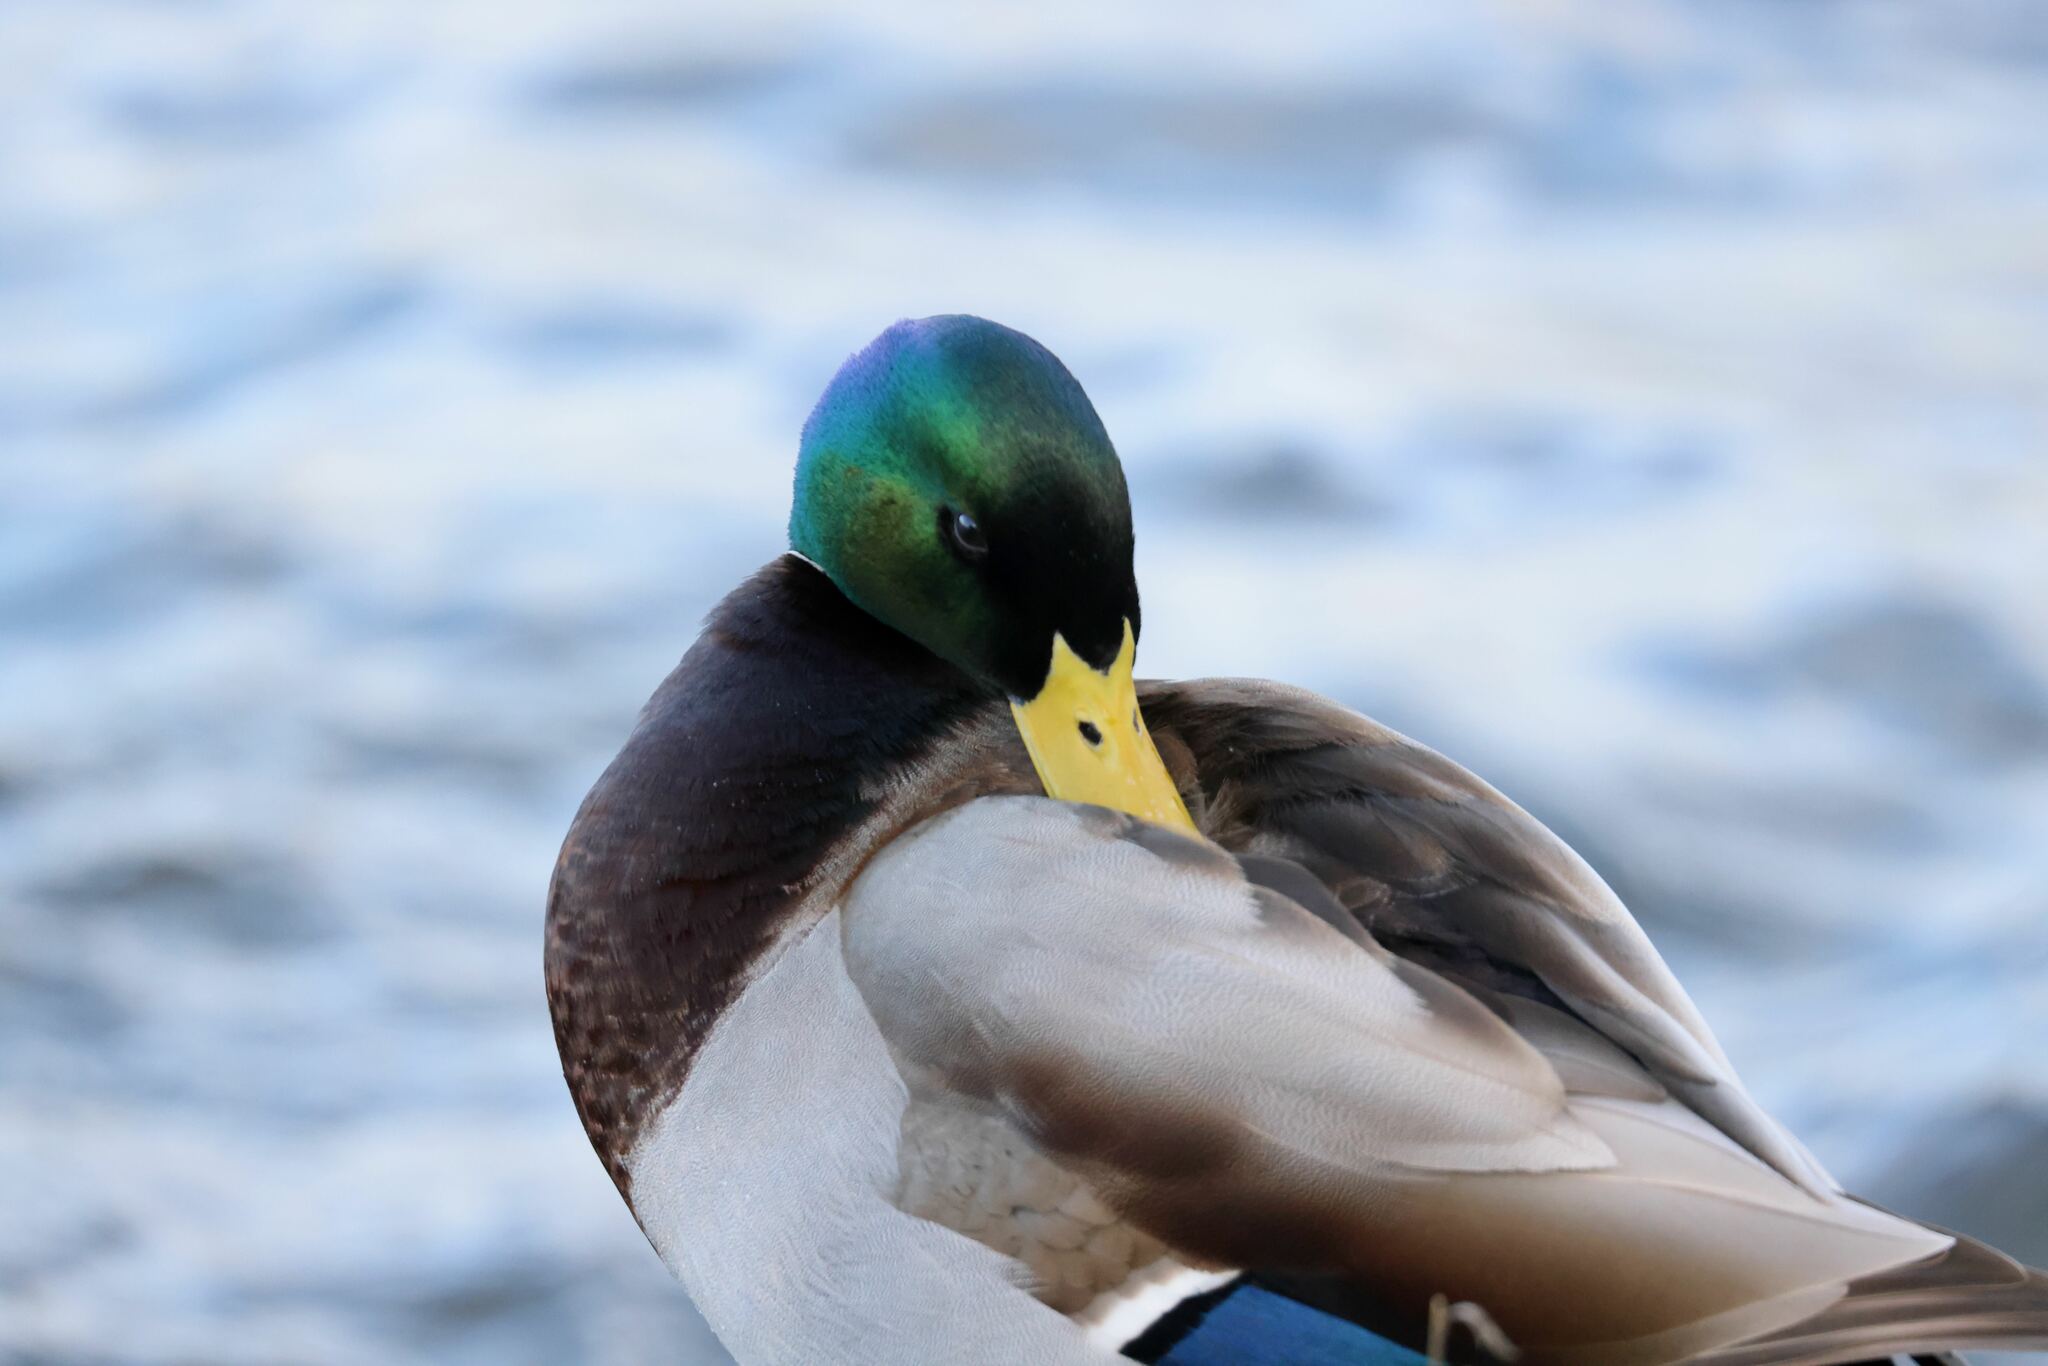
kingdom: Animalia
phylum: Chordata
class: Aves
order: Anseriformes
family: Anatidae
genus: Anas
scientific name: Anas platyrhynchos
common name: Mallard
